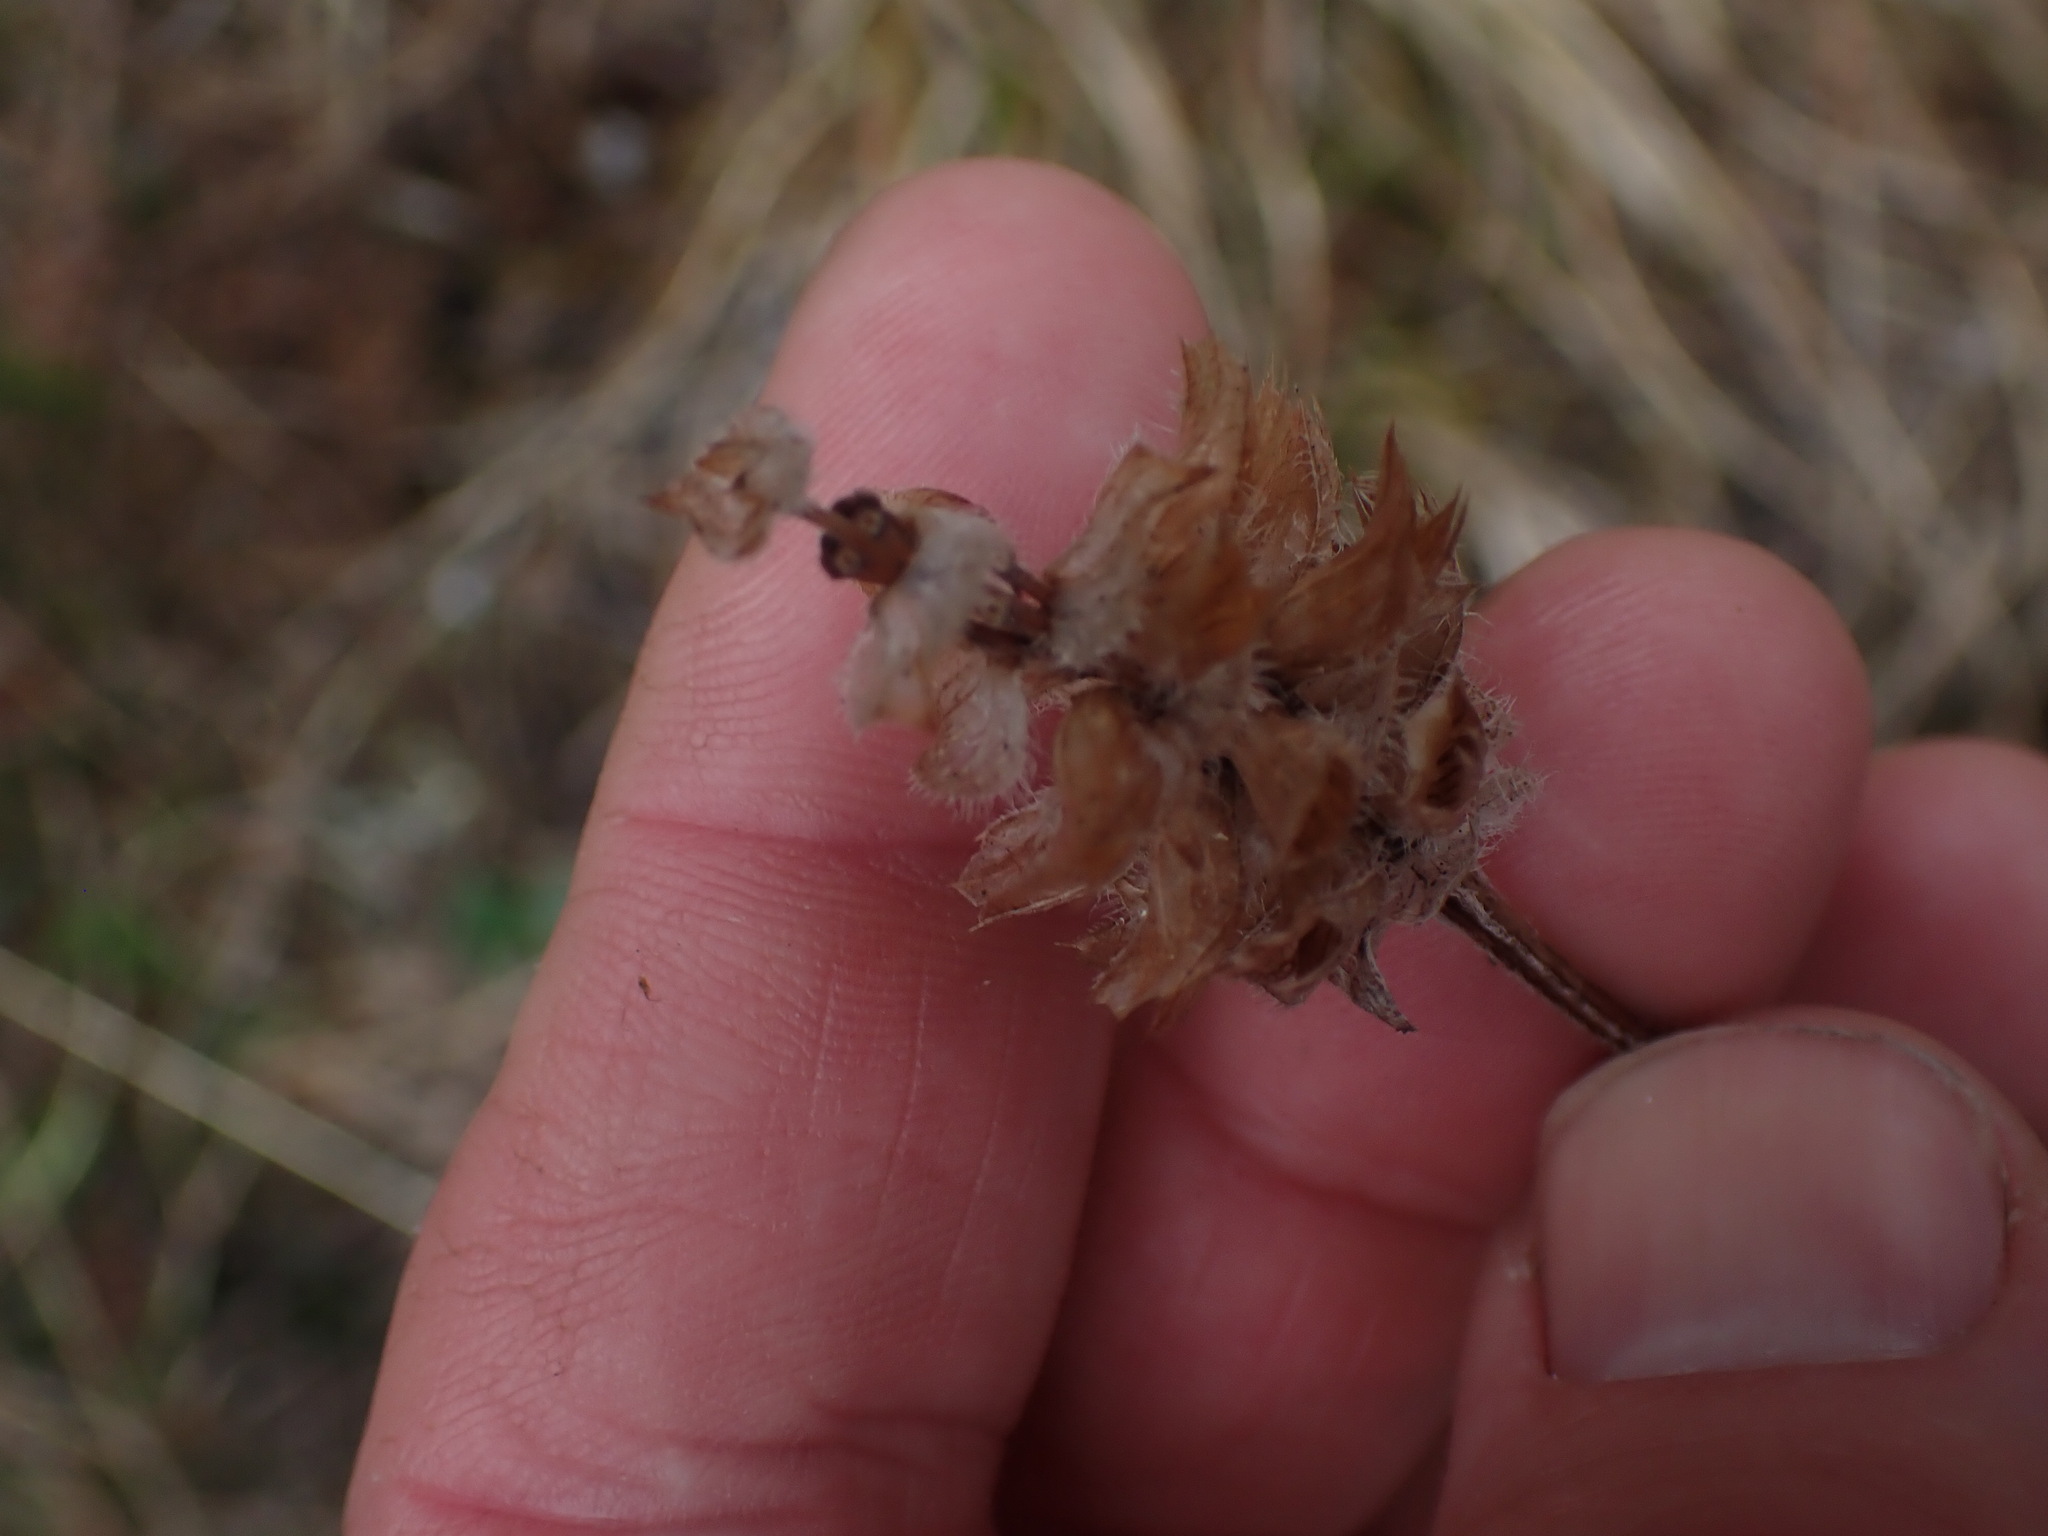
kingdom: Plantae
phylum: Tracheophyta
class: Magnoliopsida
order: Lamiales
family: Lamiaceae
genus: Prunella
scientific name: Prunella vulgaris
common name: Heal-all
